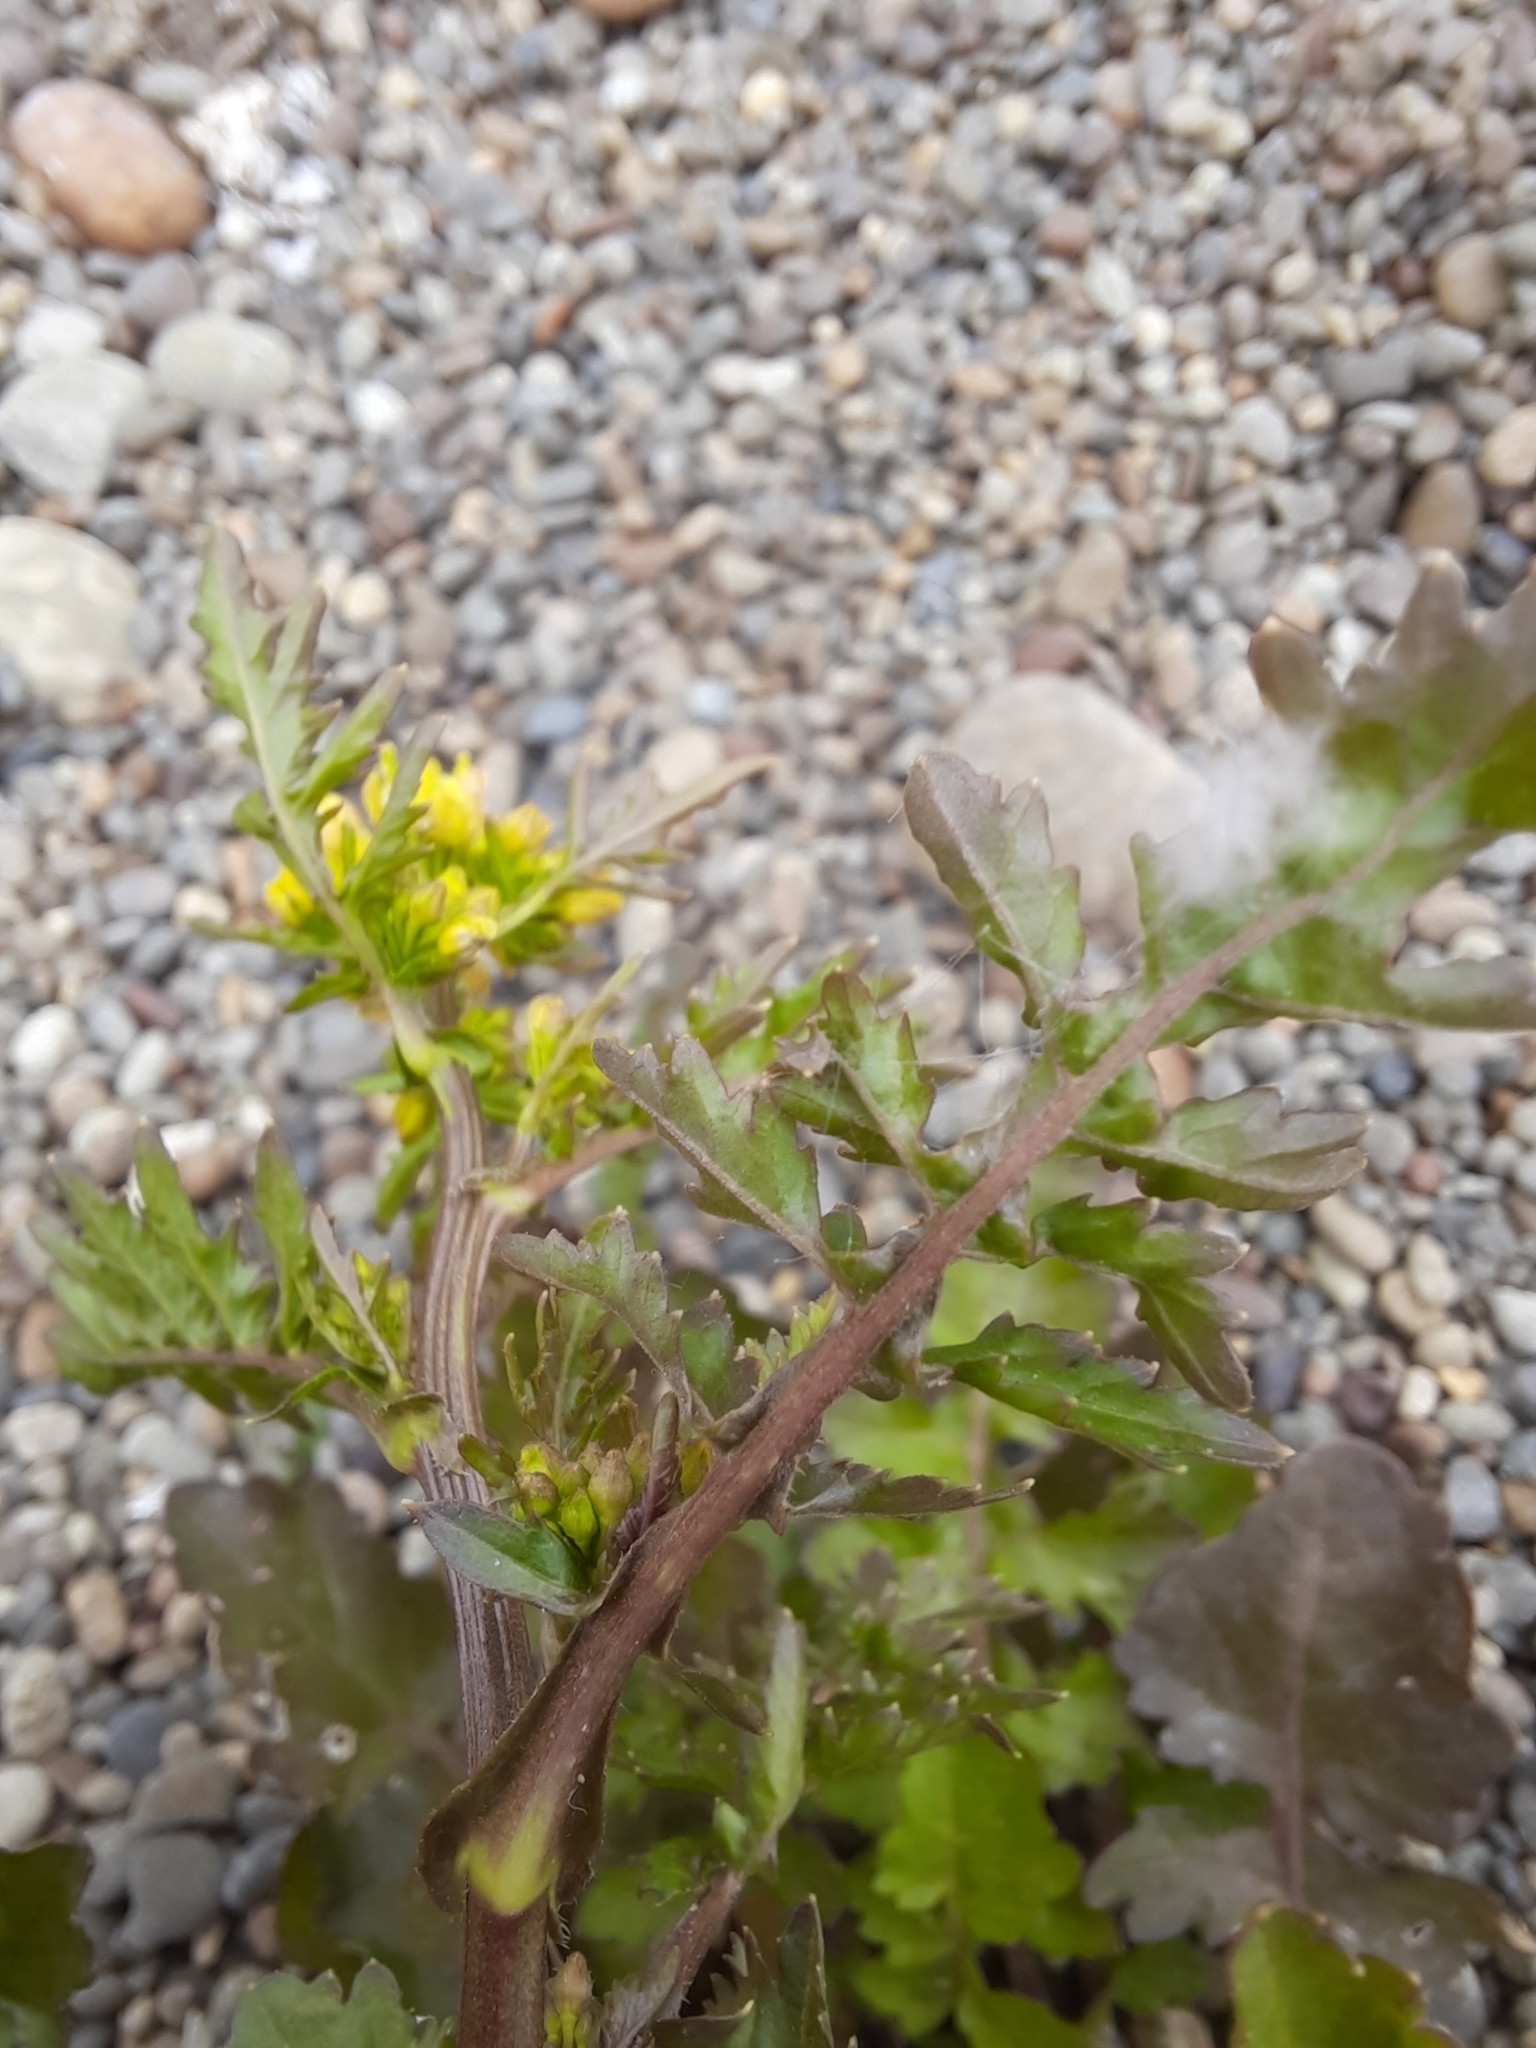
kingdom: Plantae
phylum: Tracheophyta
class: Magnoliopsida
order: Brassicales
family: Brassicaceae
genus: Rorippa
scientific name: Rorippa palustris
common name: Marsh yellow-cress
